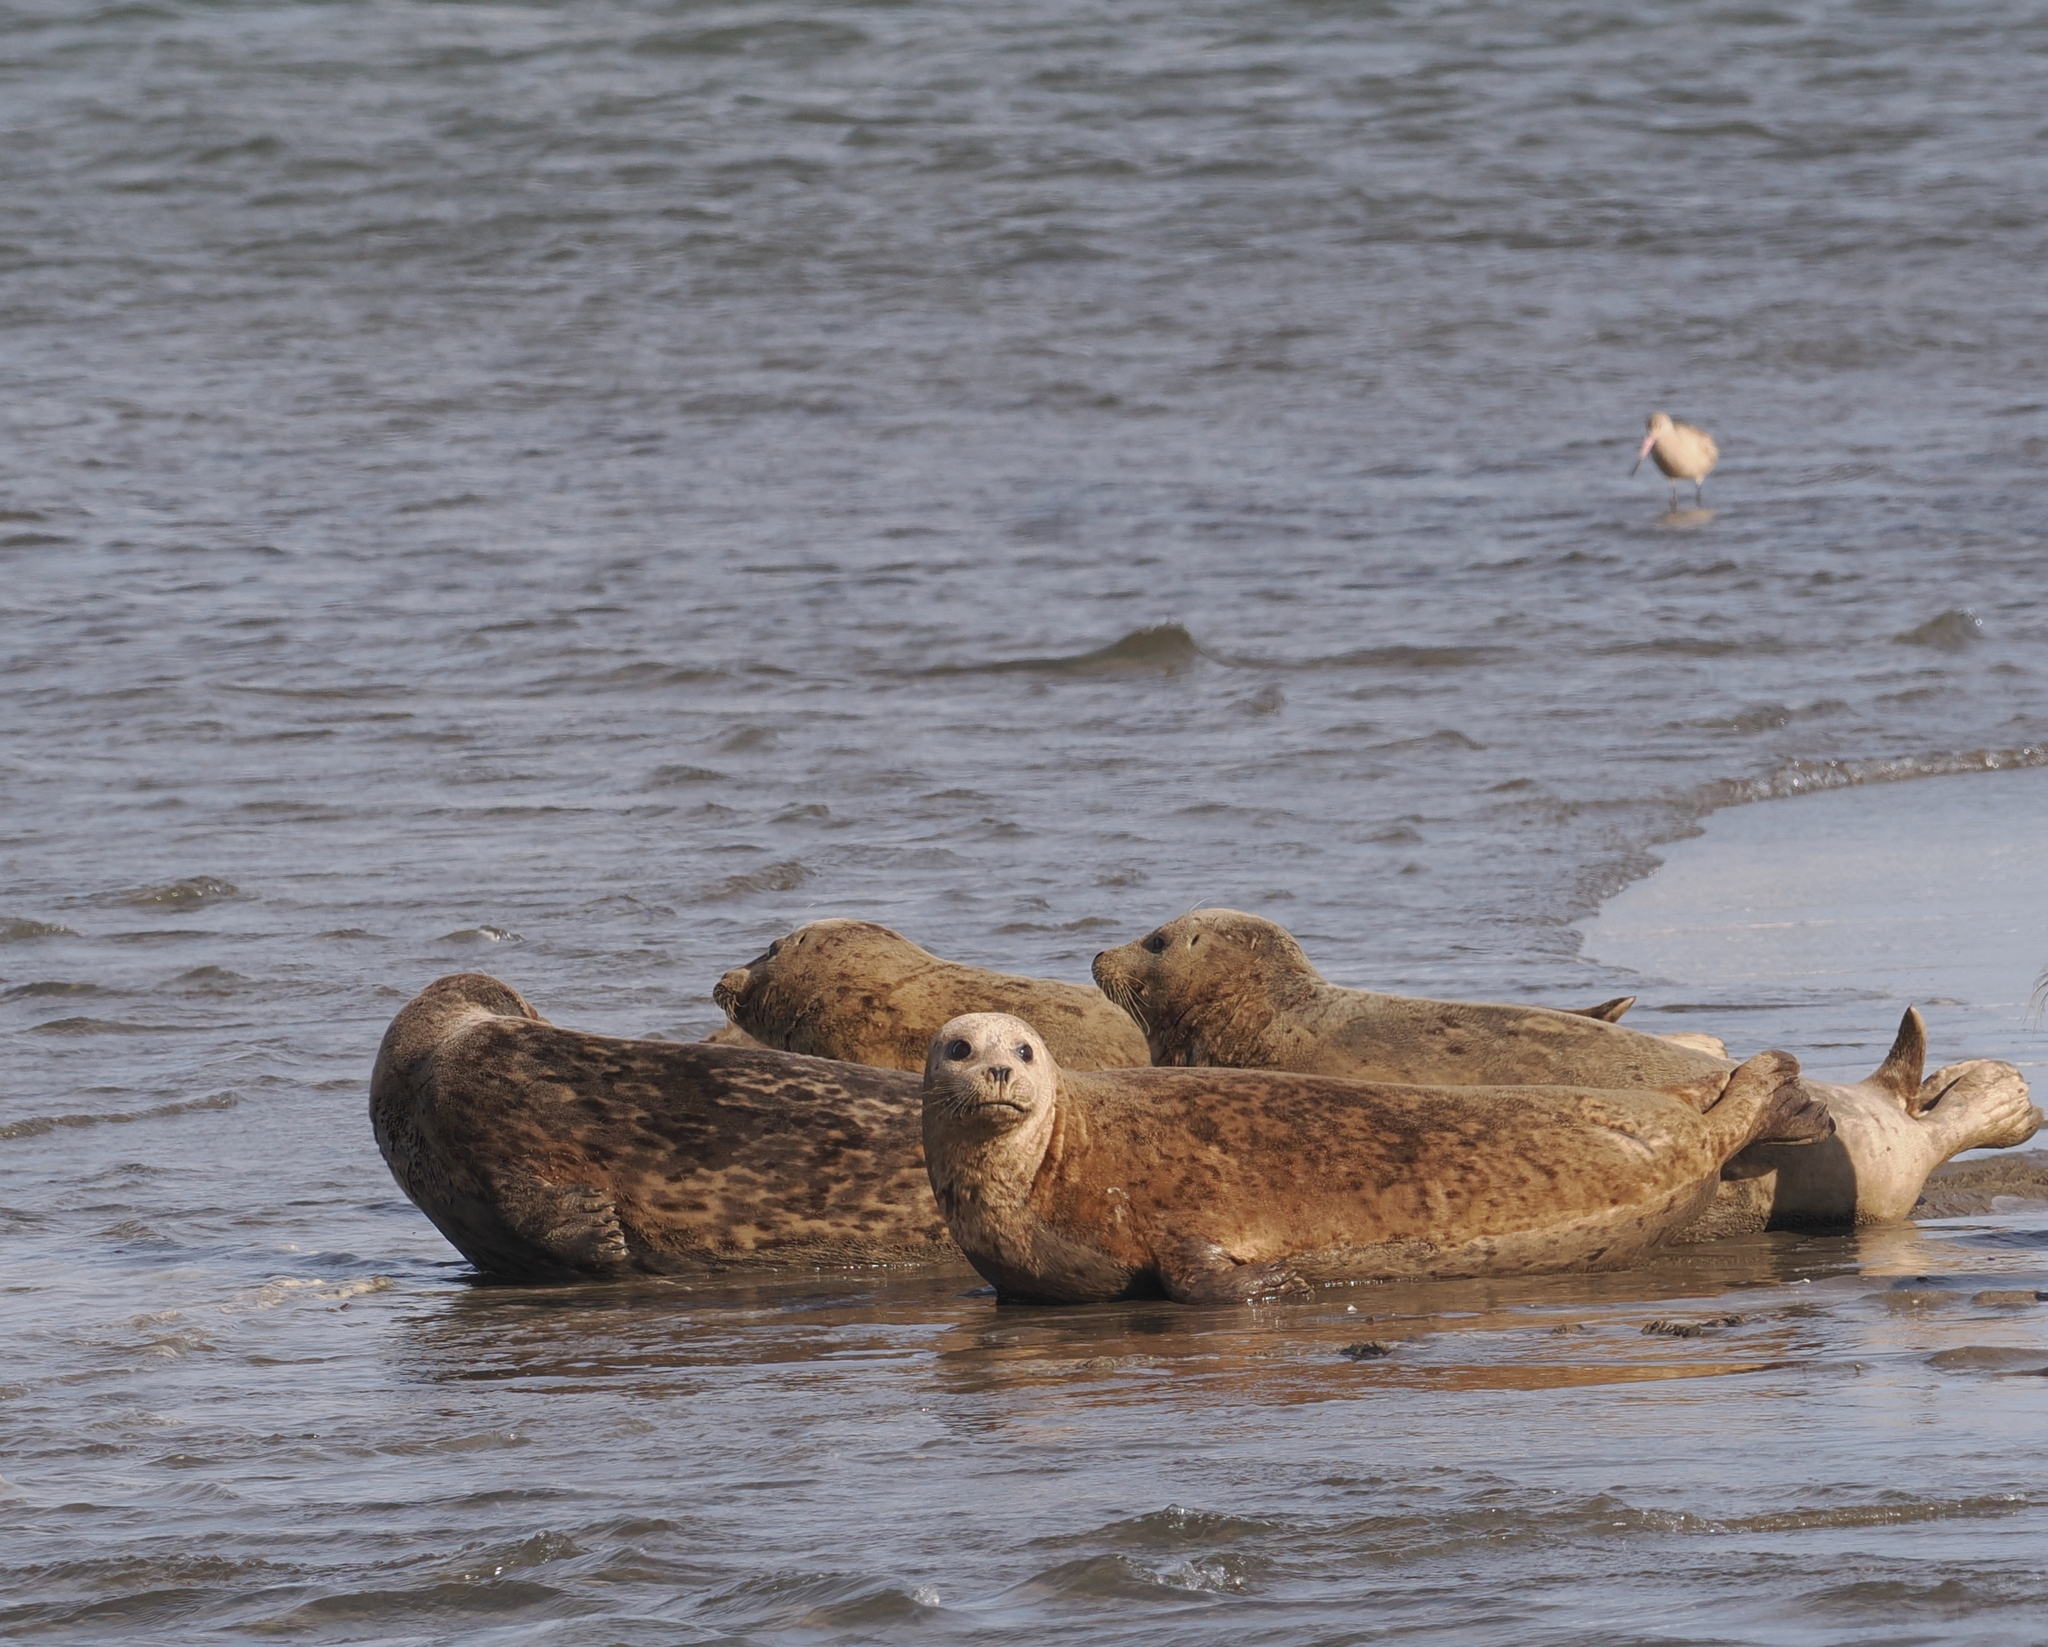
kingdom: Animalia
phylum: Chordata
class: Mammalia
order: Carnivora
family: Phocidae
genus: Phoca
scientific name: Phoca vitulina
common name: Harbor seal
